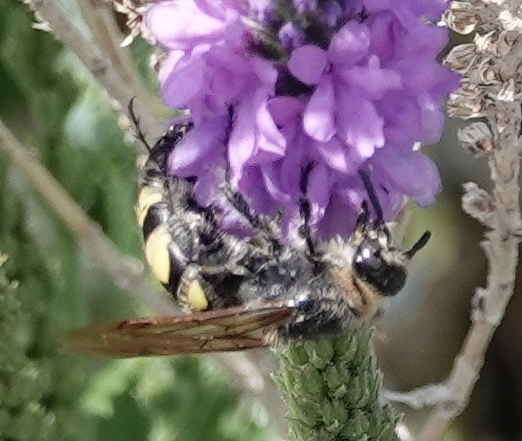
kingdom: Animalia
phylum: Arthropoda
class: Insecta
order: Hymenoptera
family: Scoliidae
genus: Dielis
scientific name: Dielis
